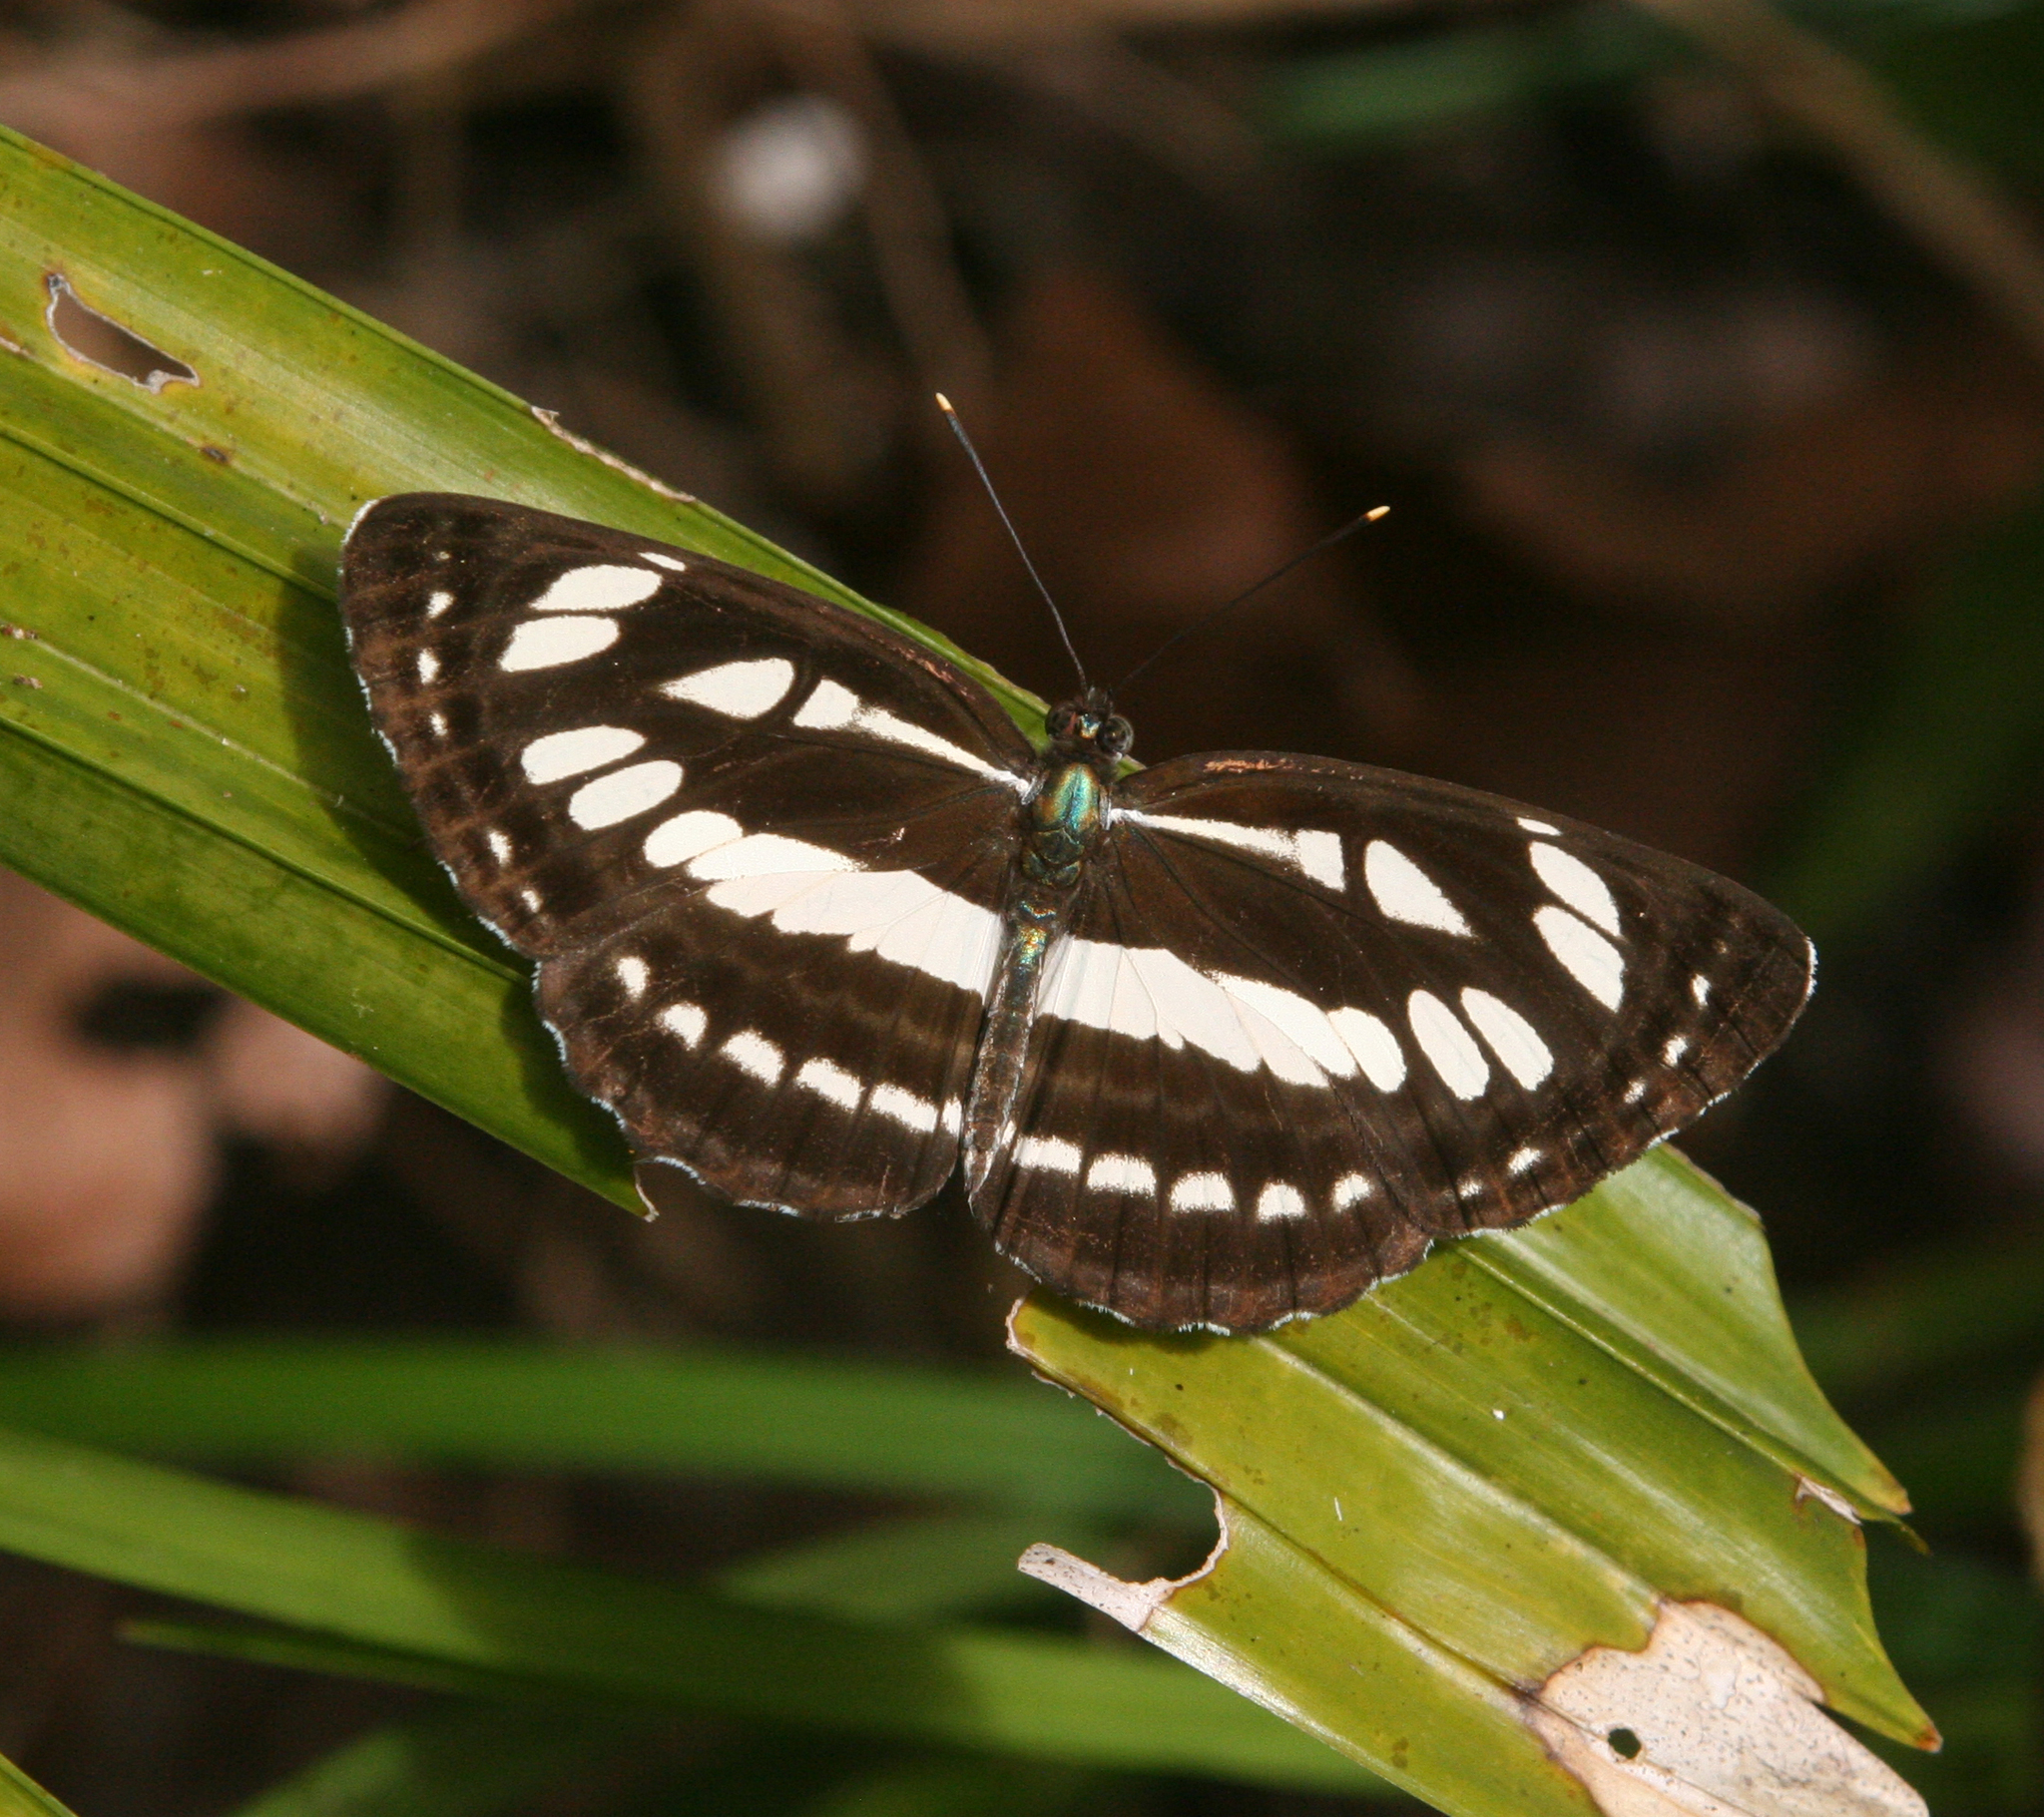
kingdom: Animalia
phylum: Arthropoda
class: Insecta
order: Lepidoptera
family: Nymphalidae
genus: Neptis
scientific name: Neptis hylas
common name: Common sailer
